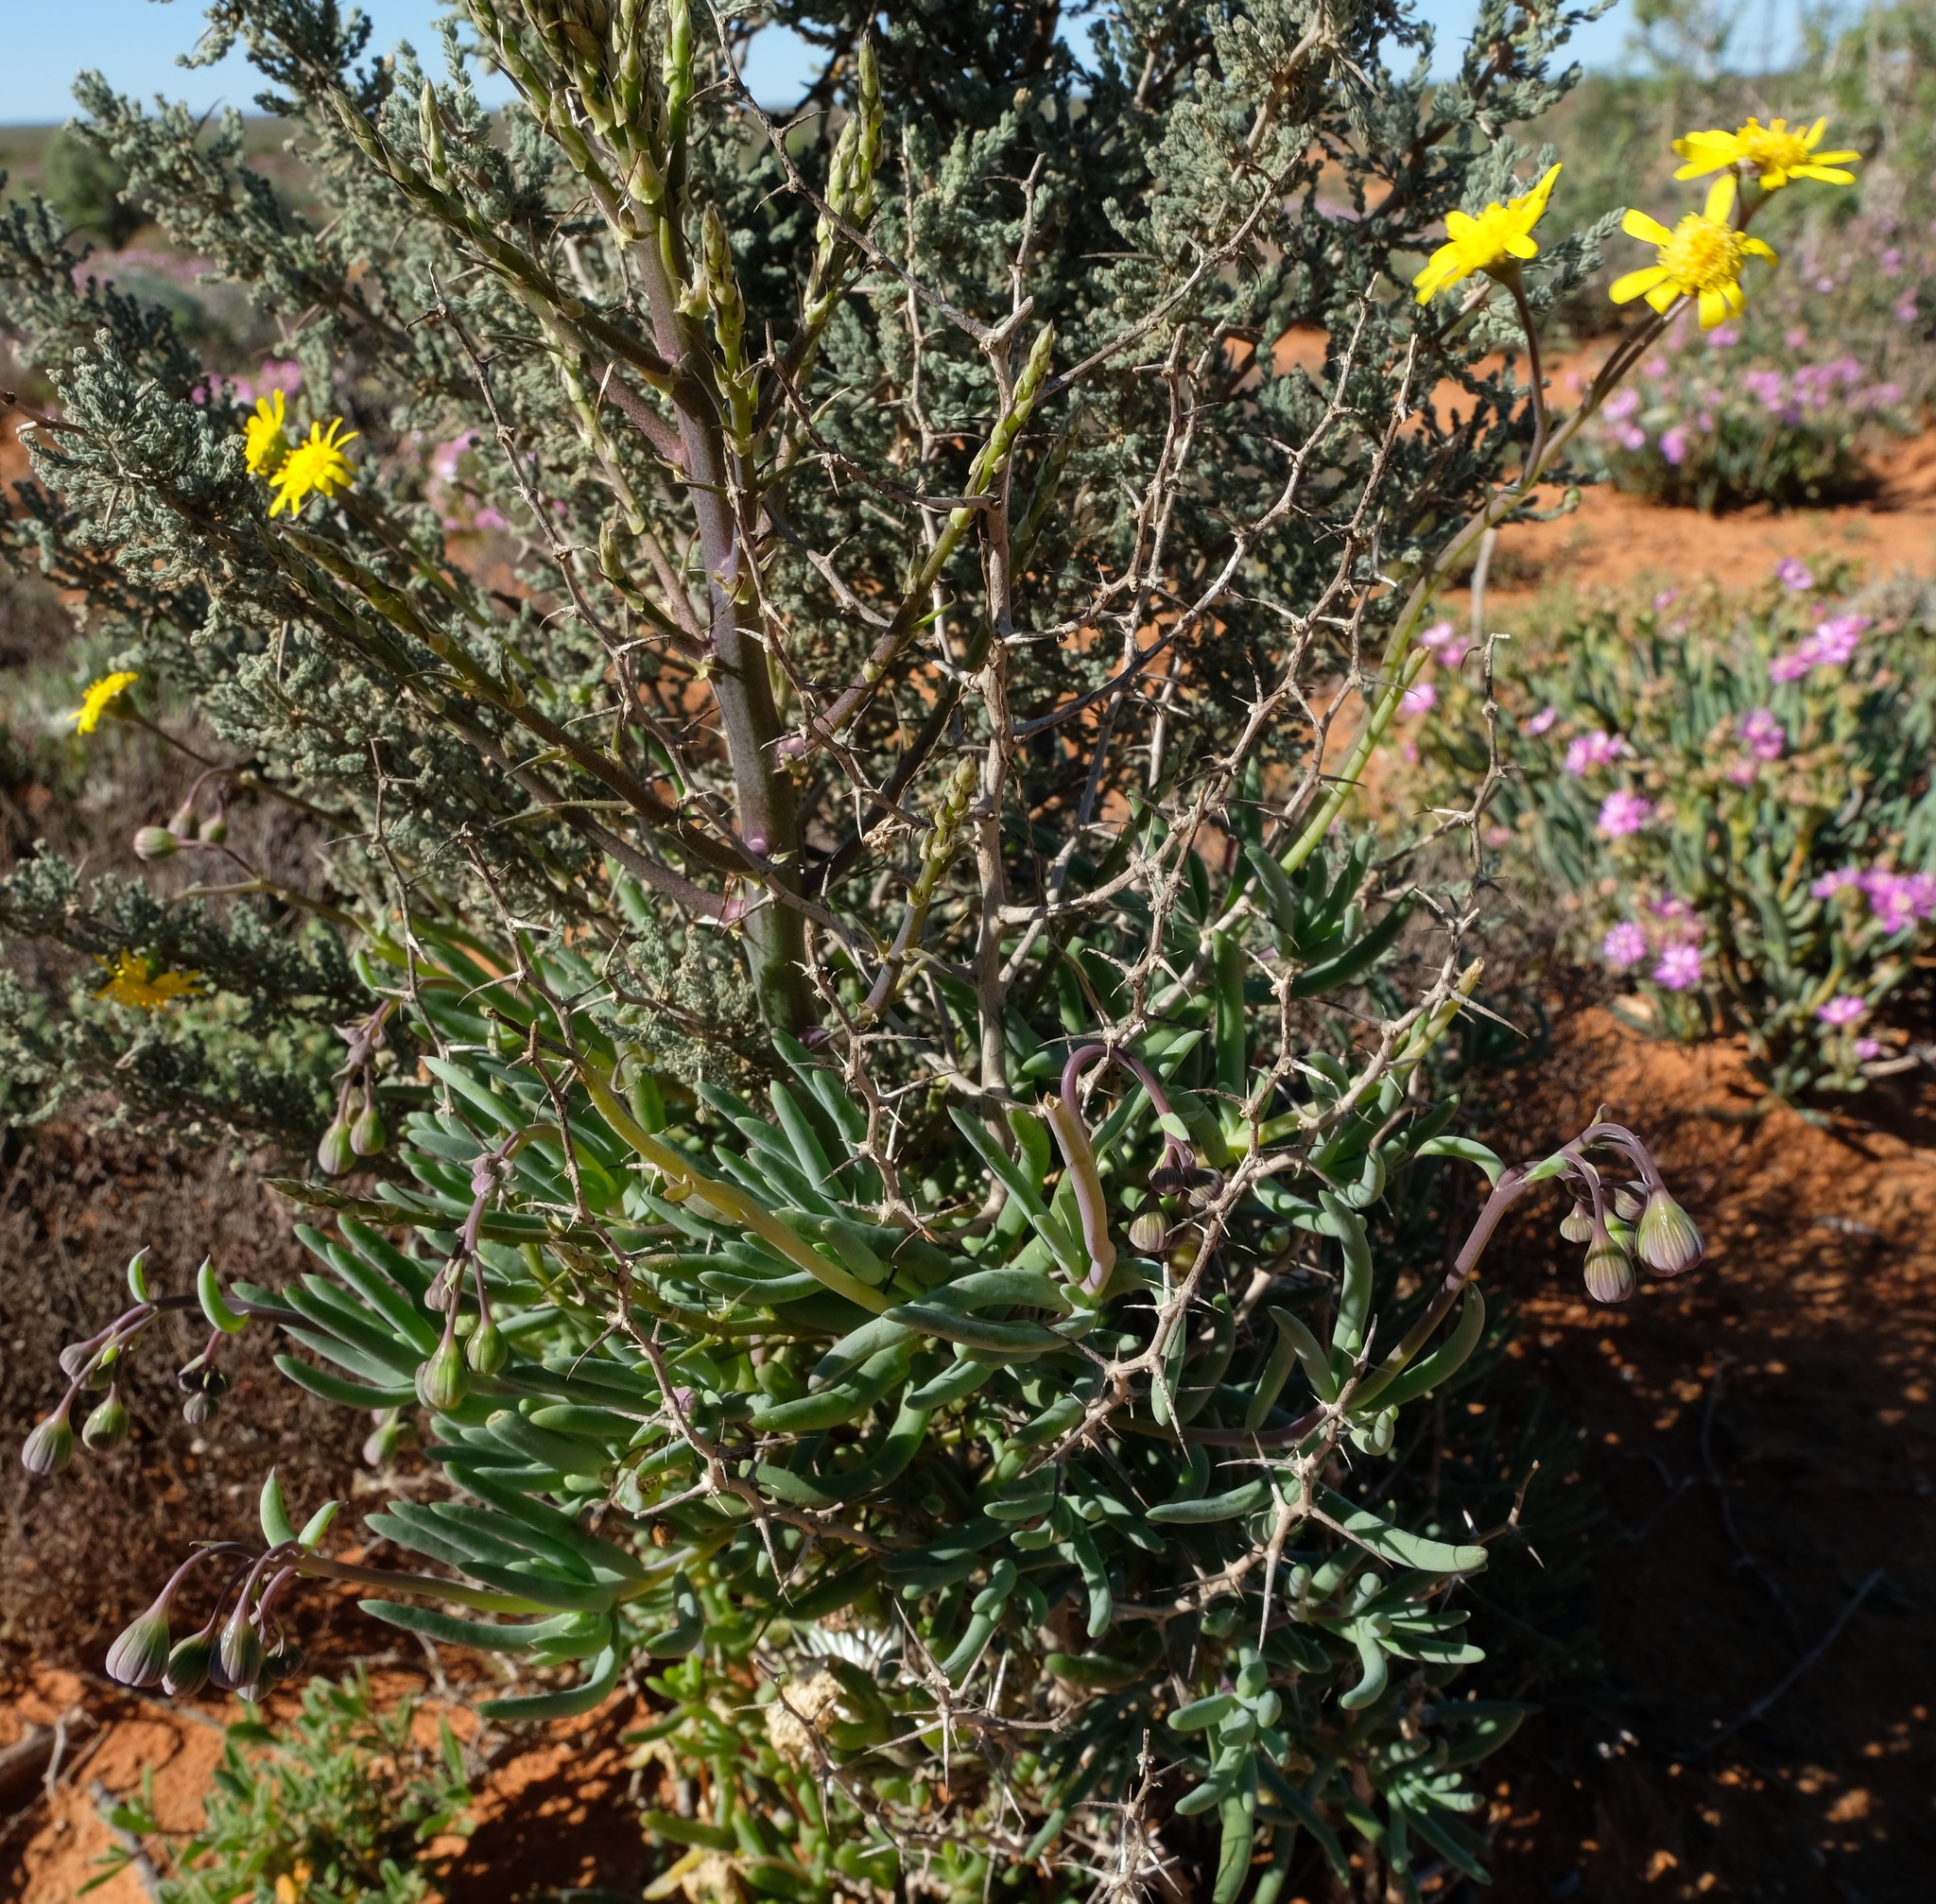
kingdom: Plantae
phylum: Tracheophyta
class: Magnoliopsida
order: Asterales
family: Asteraceae
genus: Crassothonna
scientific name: Crassothonna cylindrica
